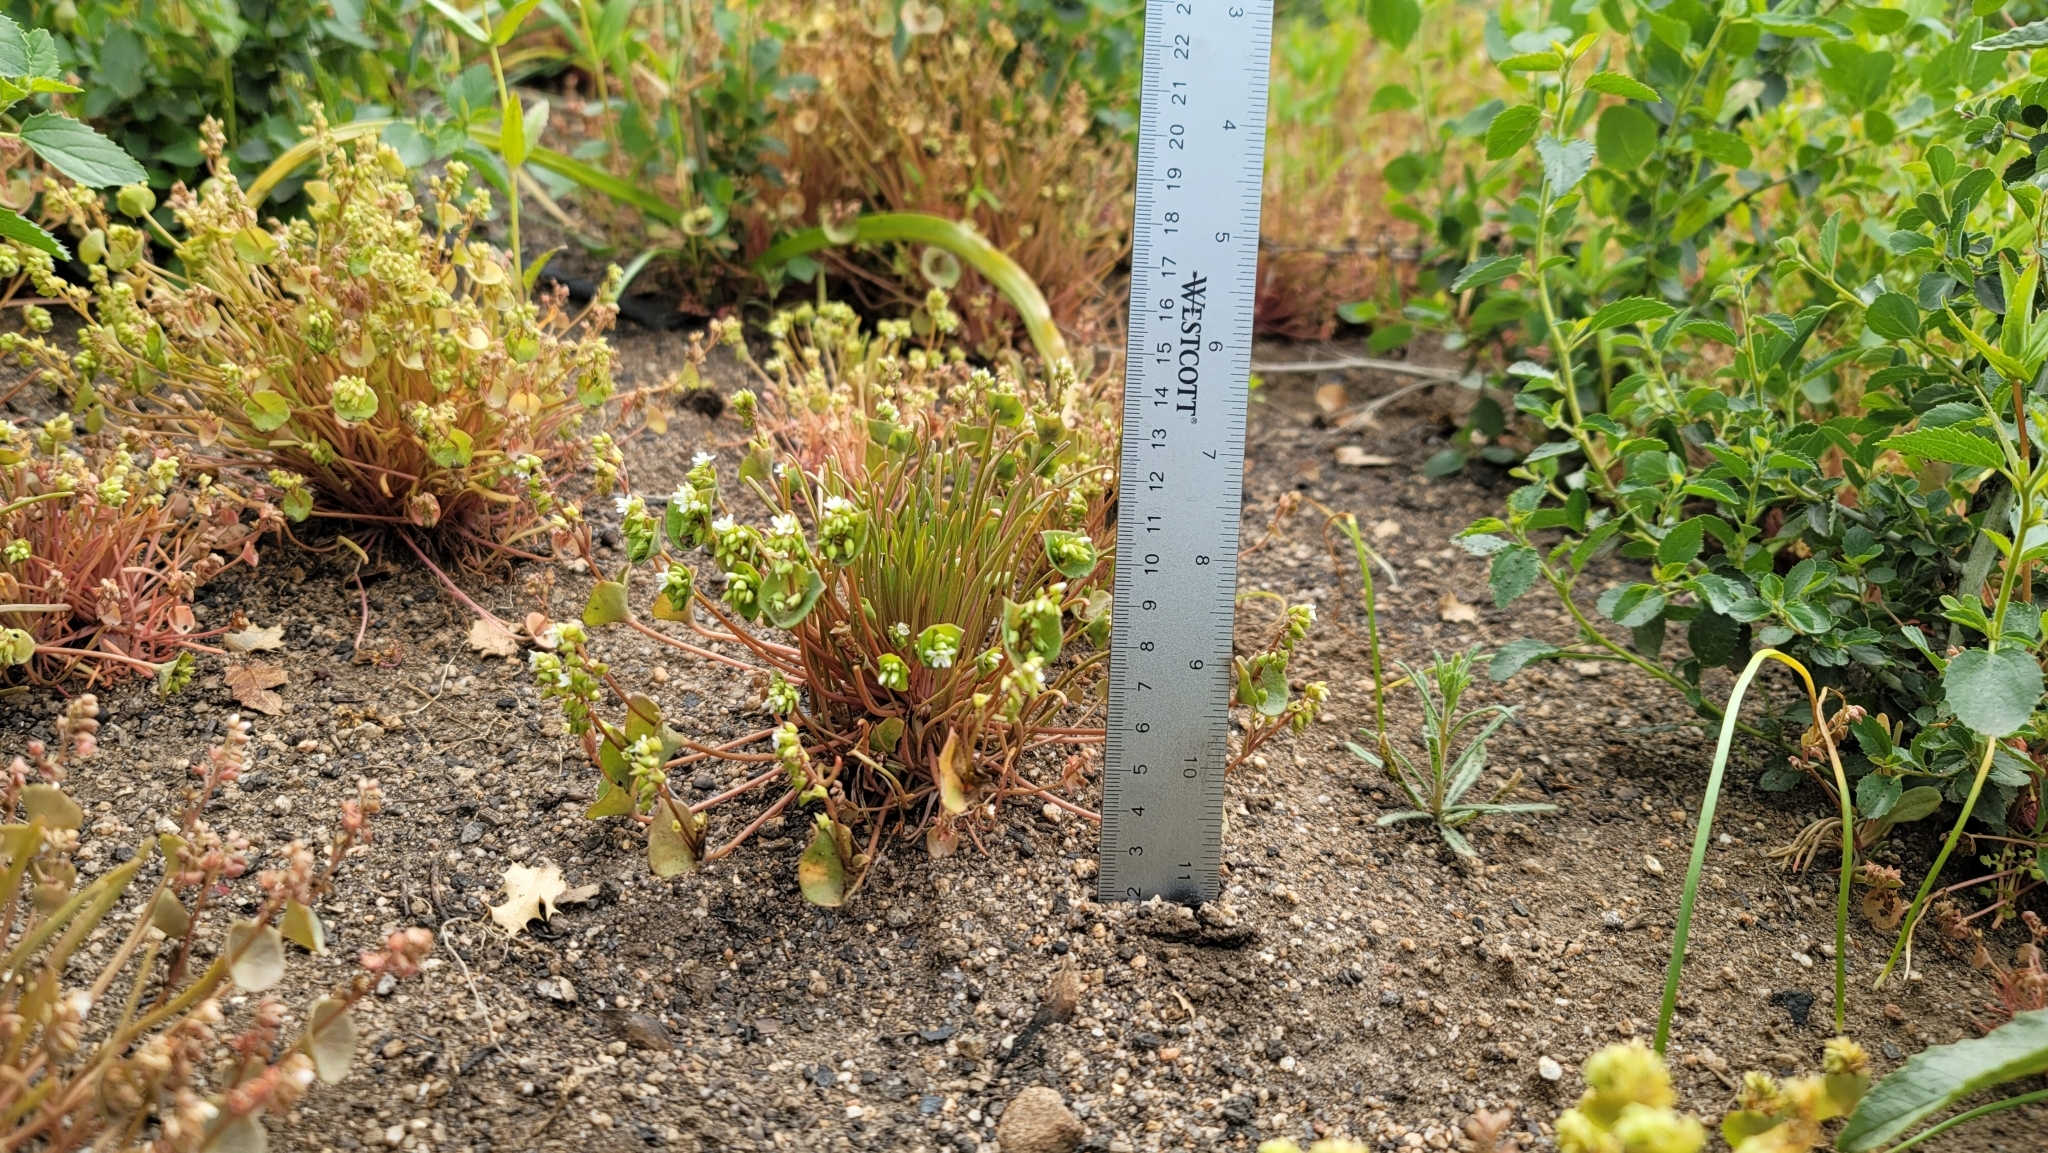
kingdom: Plantae
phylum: Tracheophyta
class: Magnoliopsida
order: Caryophyllales
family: Montiaceae
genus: Claytonia
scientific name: Claytonia parviflora
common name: Indian-lettuce
